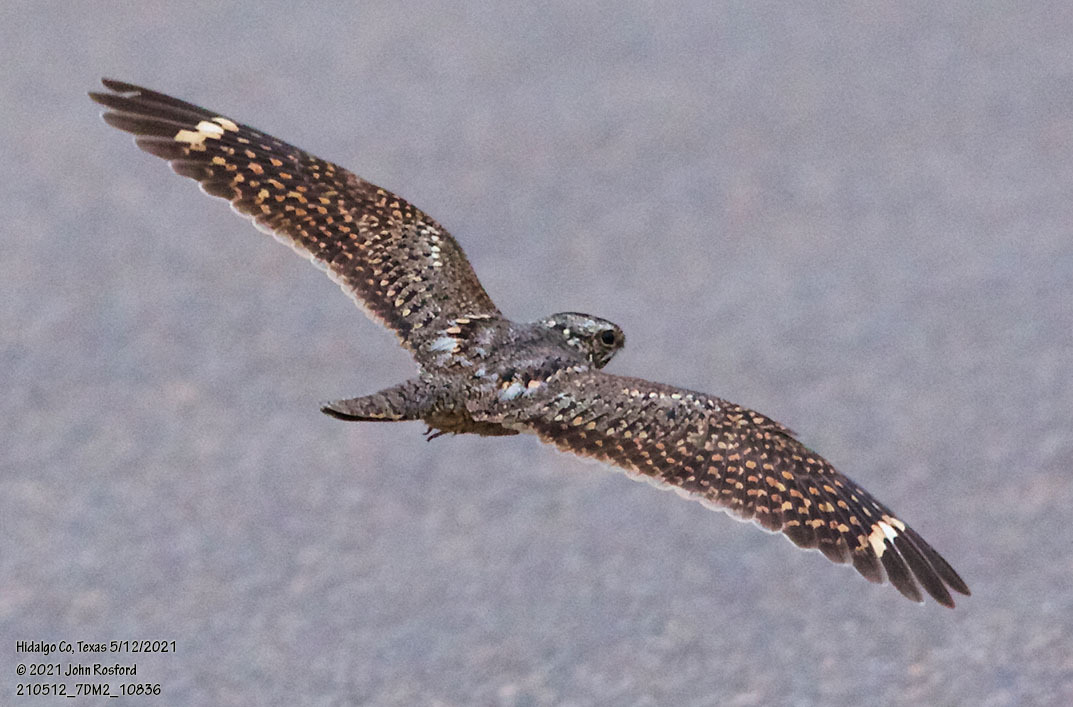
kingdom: Animalia
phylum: Chordata
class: Aves
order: Caprimulgiformes
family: Caprimulgidae
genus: Chordeiles
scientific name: Chordeiles acutipennis
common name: Lesser nighthawk
